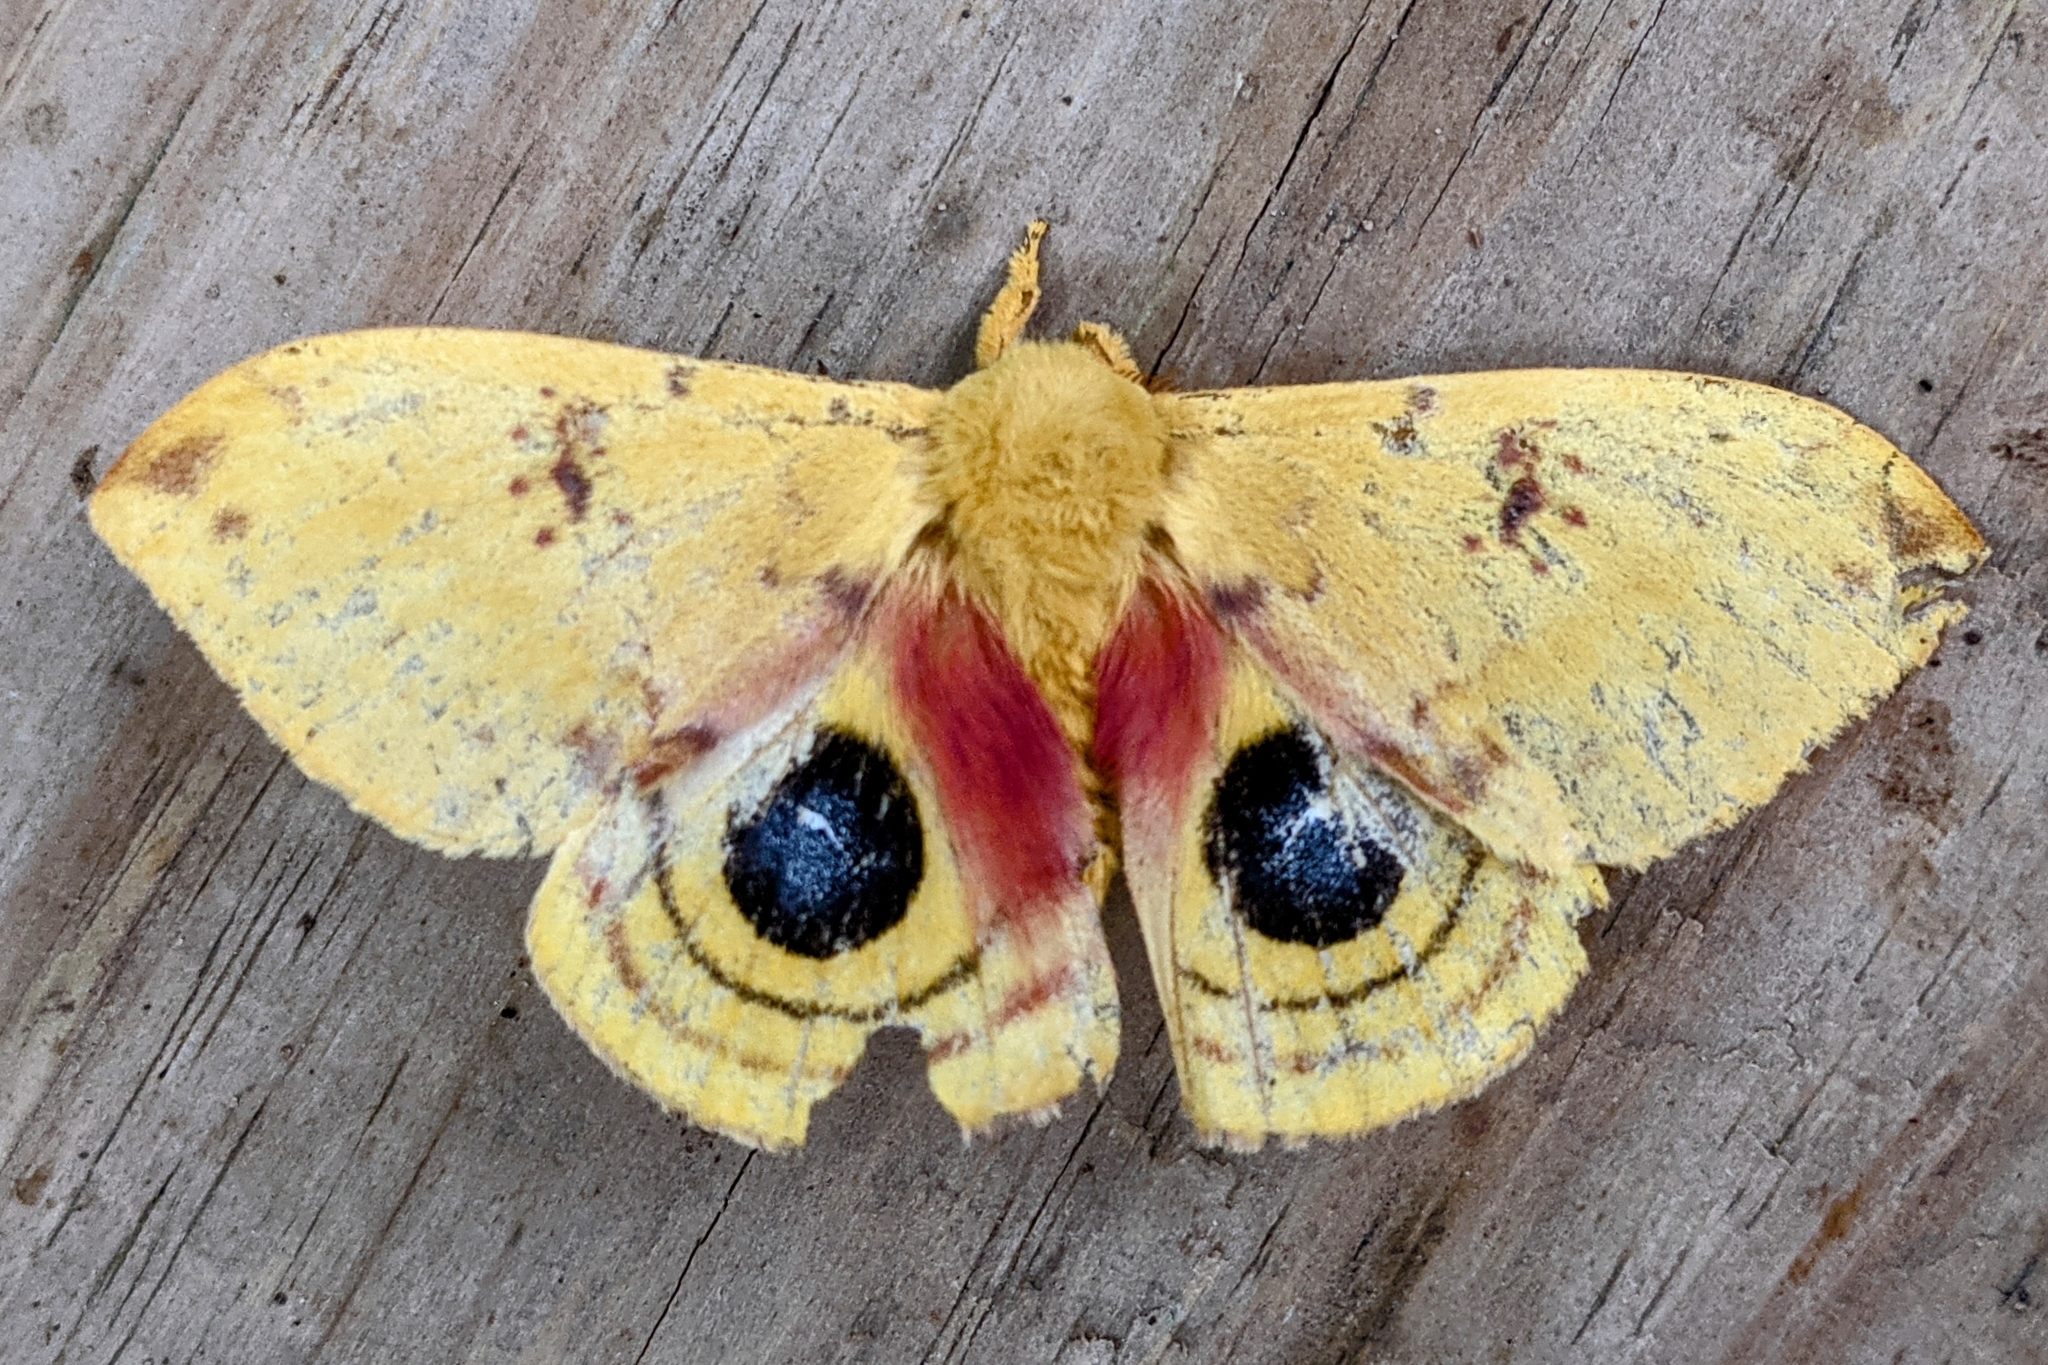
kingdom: Animalia
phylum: Arthropoda
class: Insecta
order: Lepidoptera
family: Saturniidae
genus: Automeris
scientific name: Automeris io
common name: Io moth
